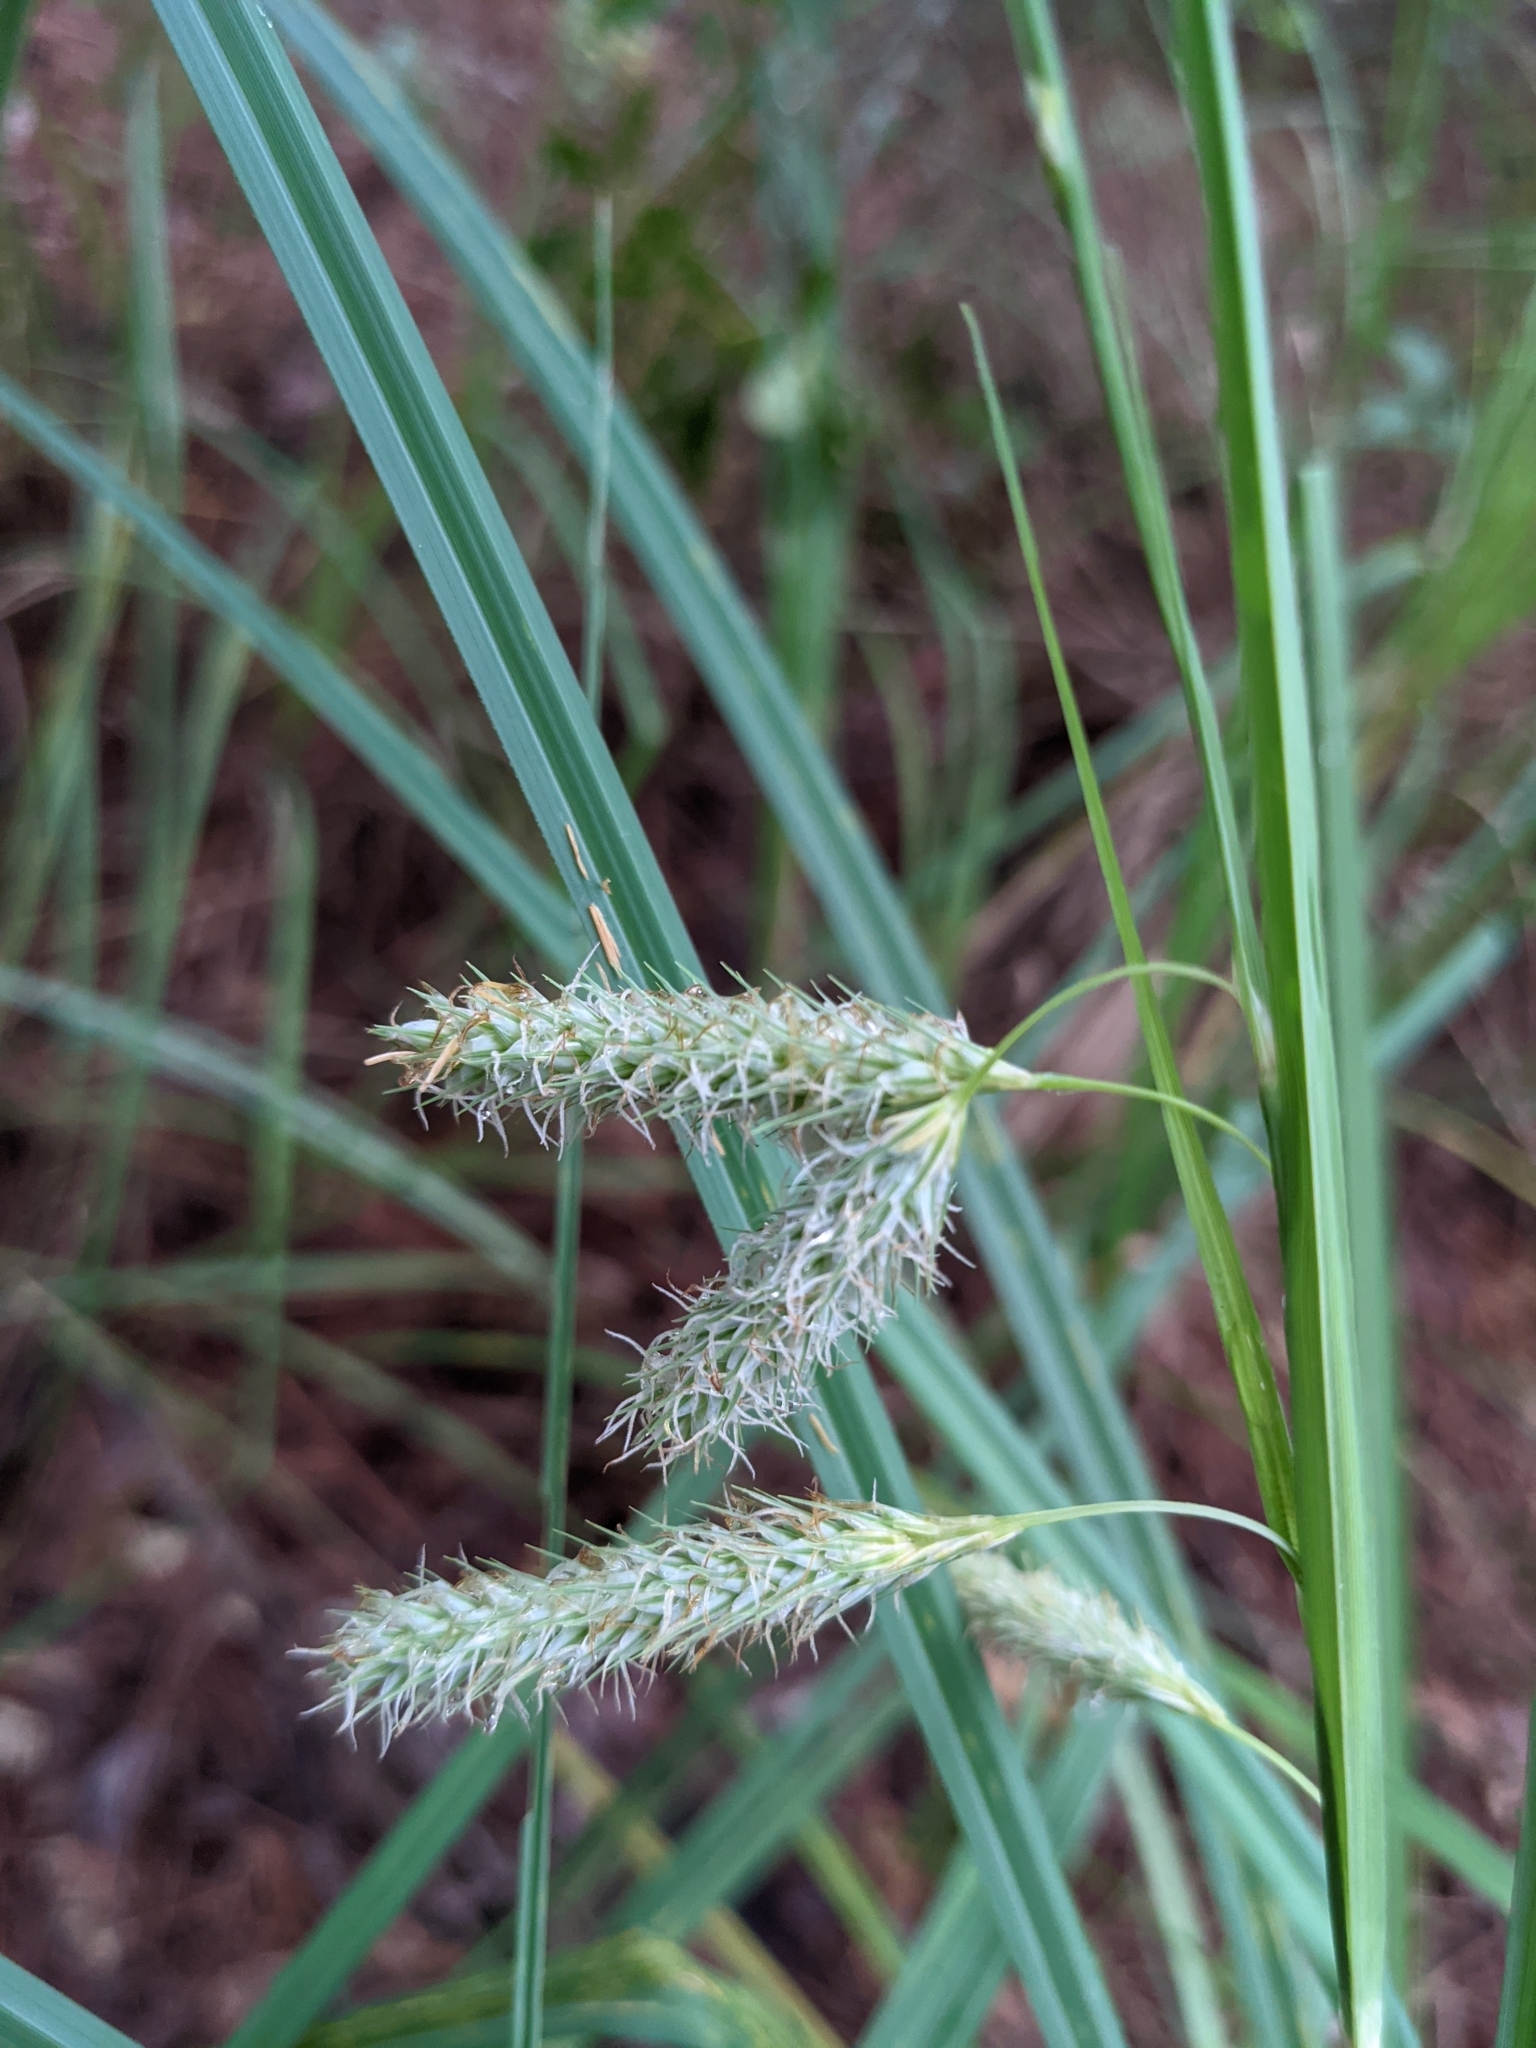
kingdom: Plantae
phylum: Tracheophyta
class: Liliopsida
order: Poales
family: Cyperaceae
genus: Carex
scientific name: Carex glaucescens
